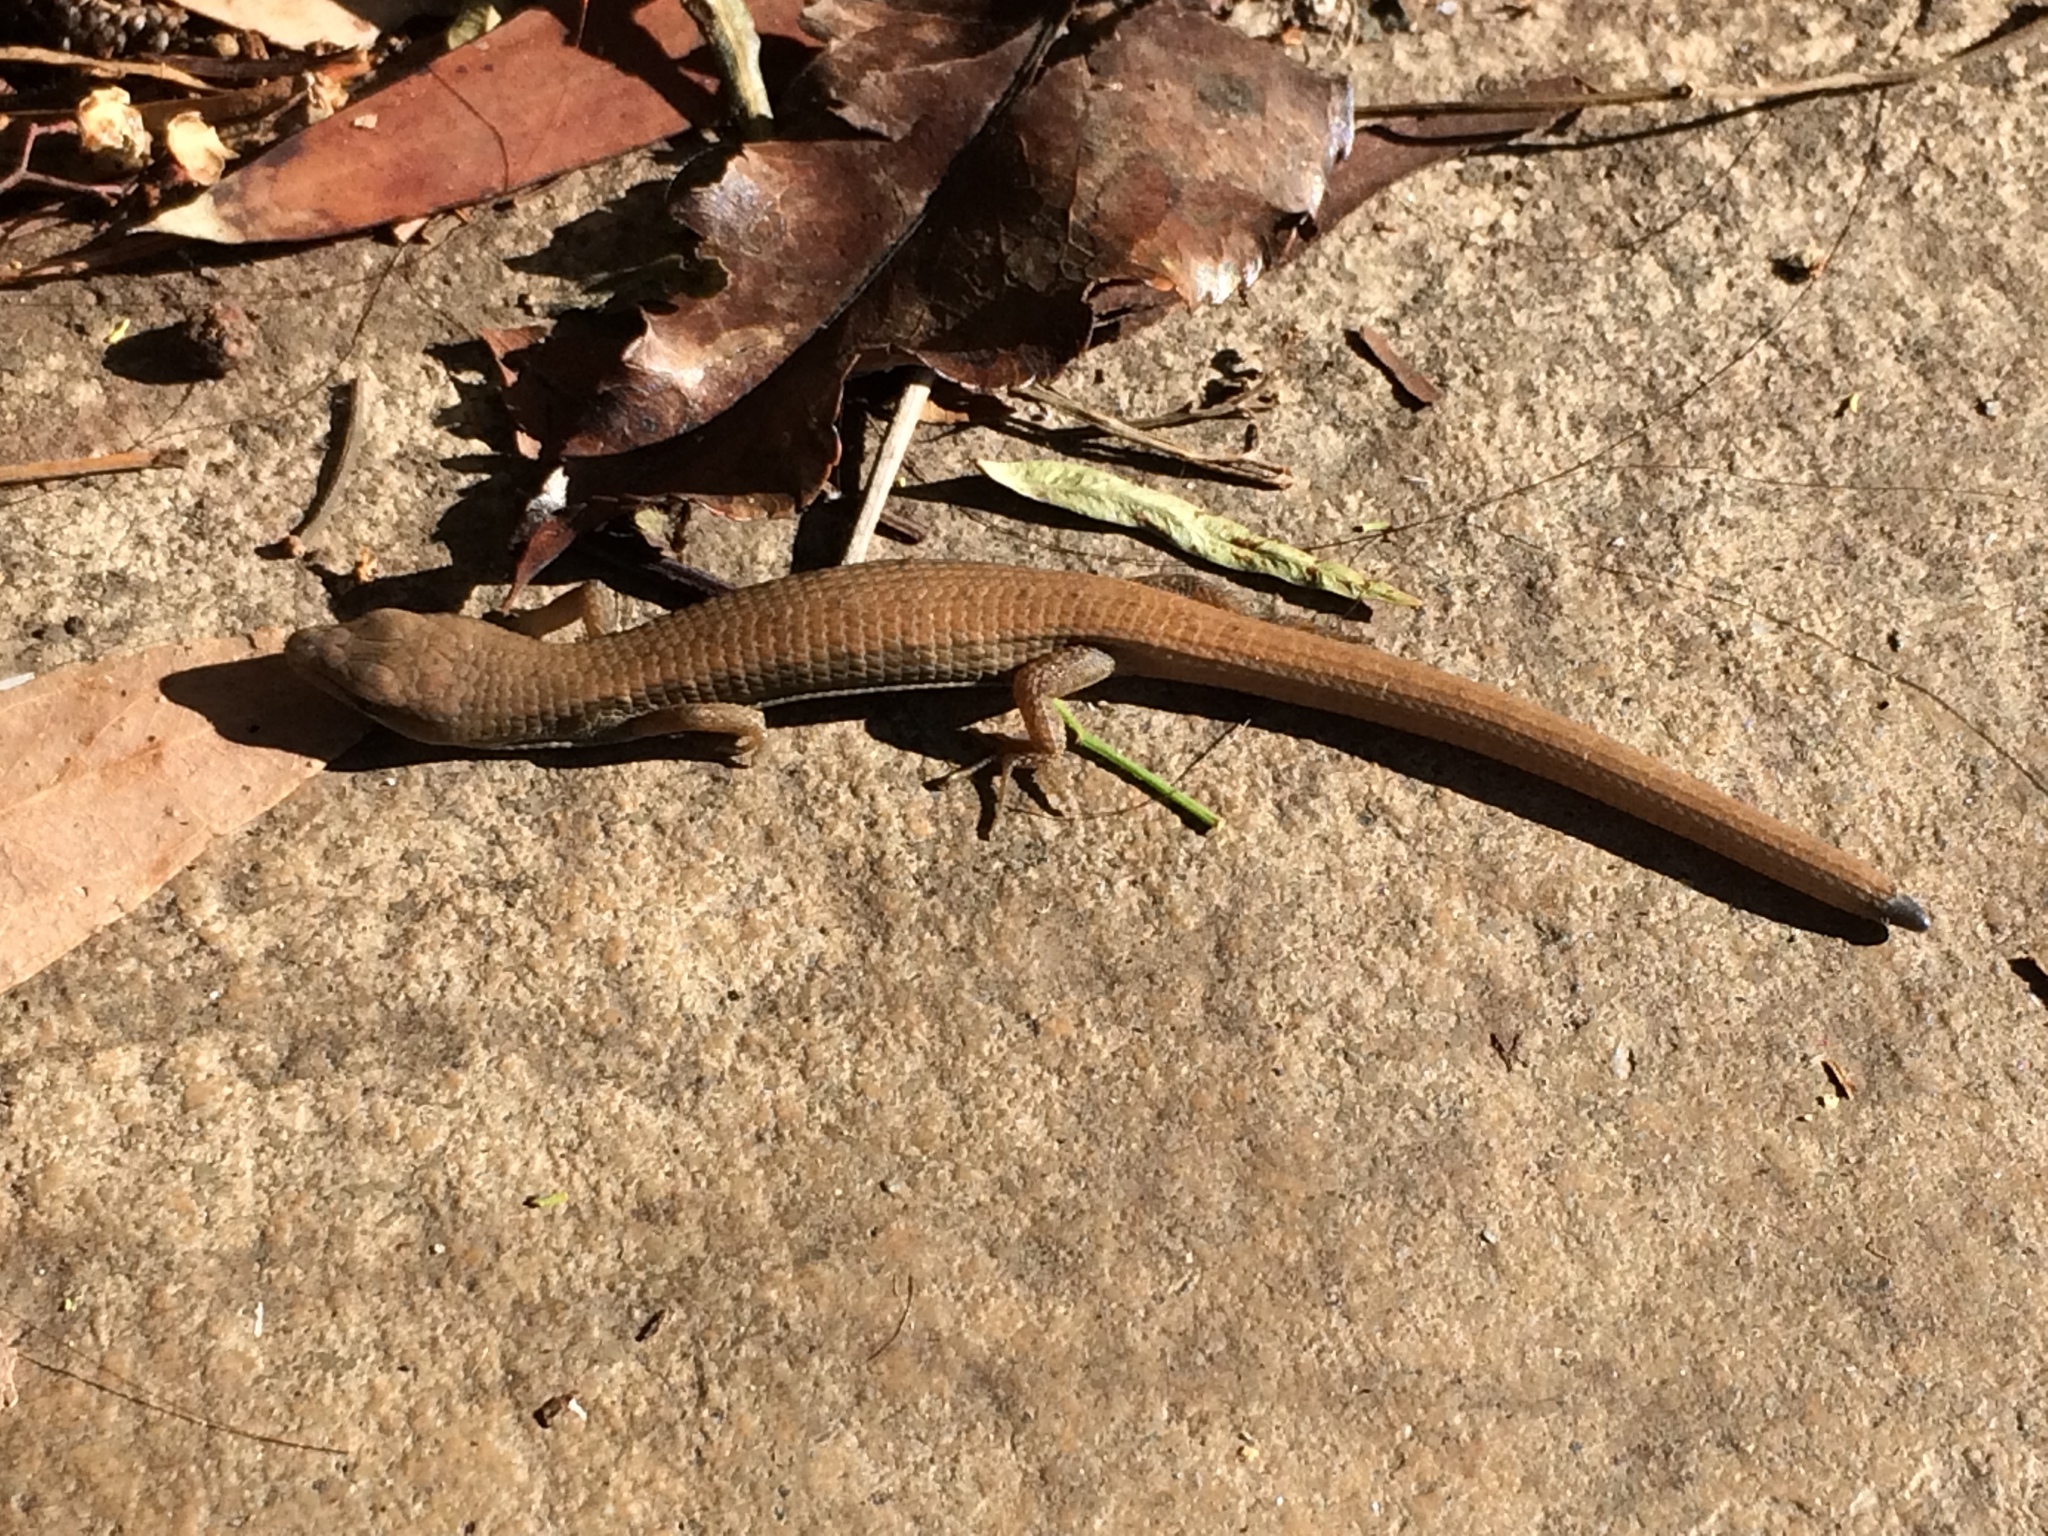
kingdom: Animalia
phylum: Chordata
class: Squamata
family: Anguidae
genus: Elgaria
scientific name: Elgaria multicarinata
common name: Southern alligator lizard
